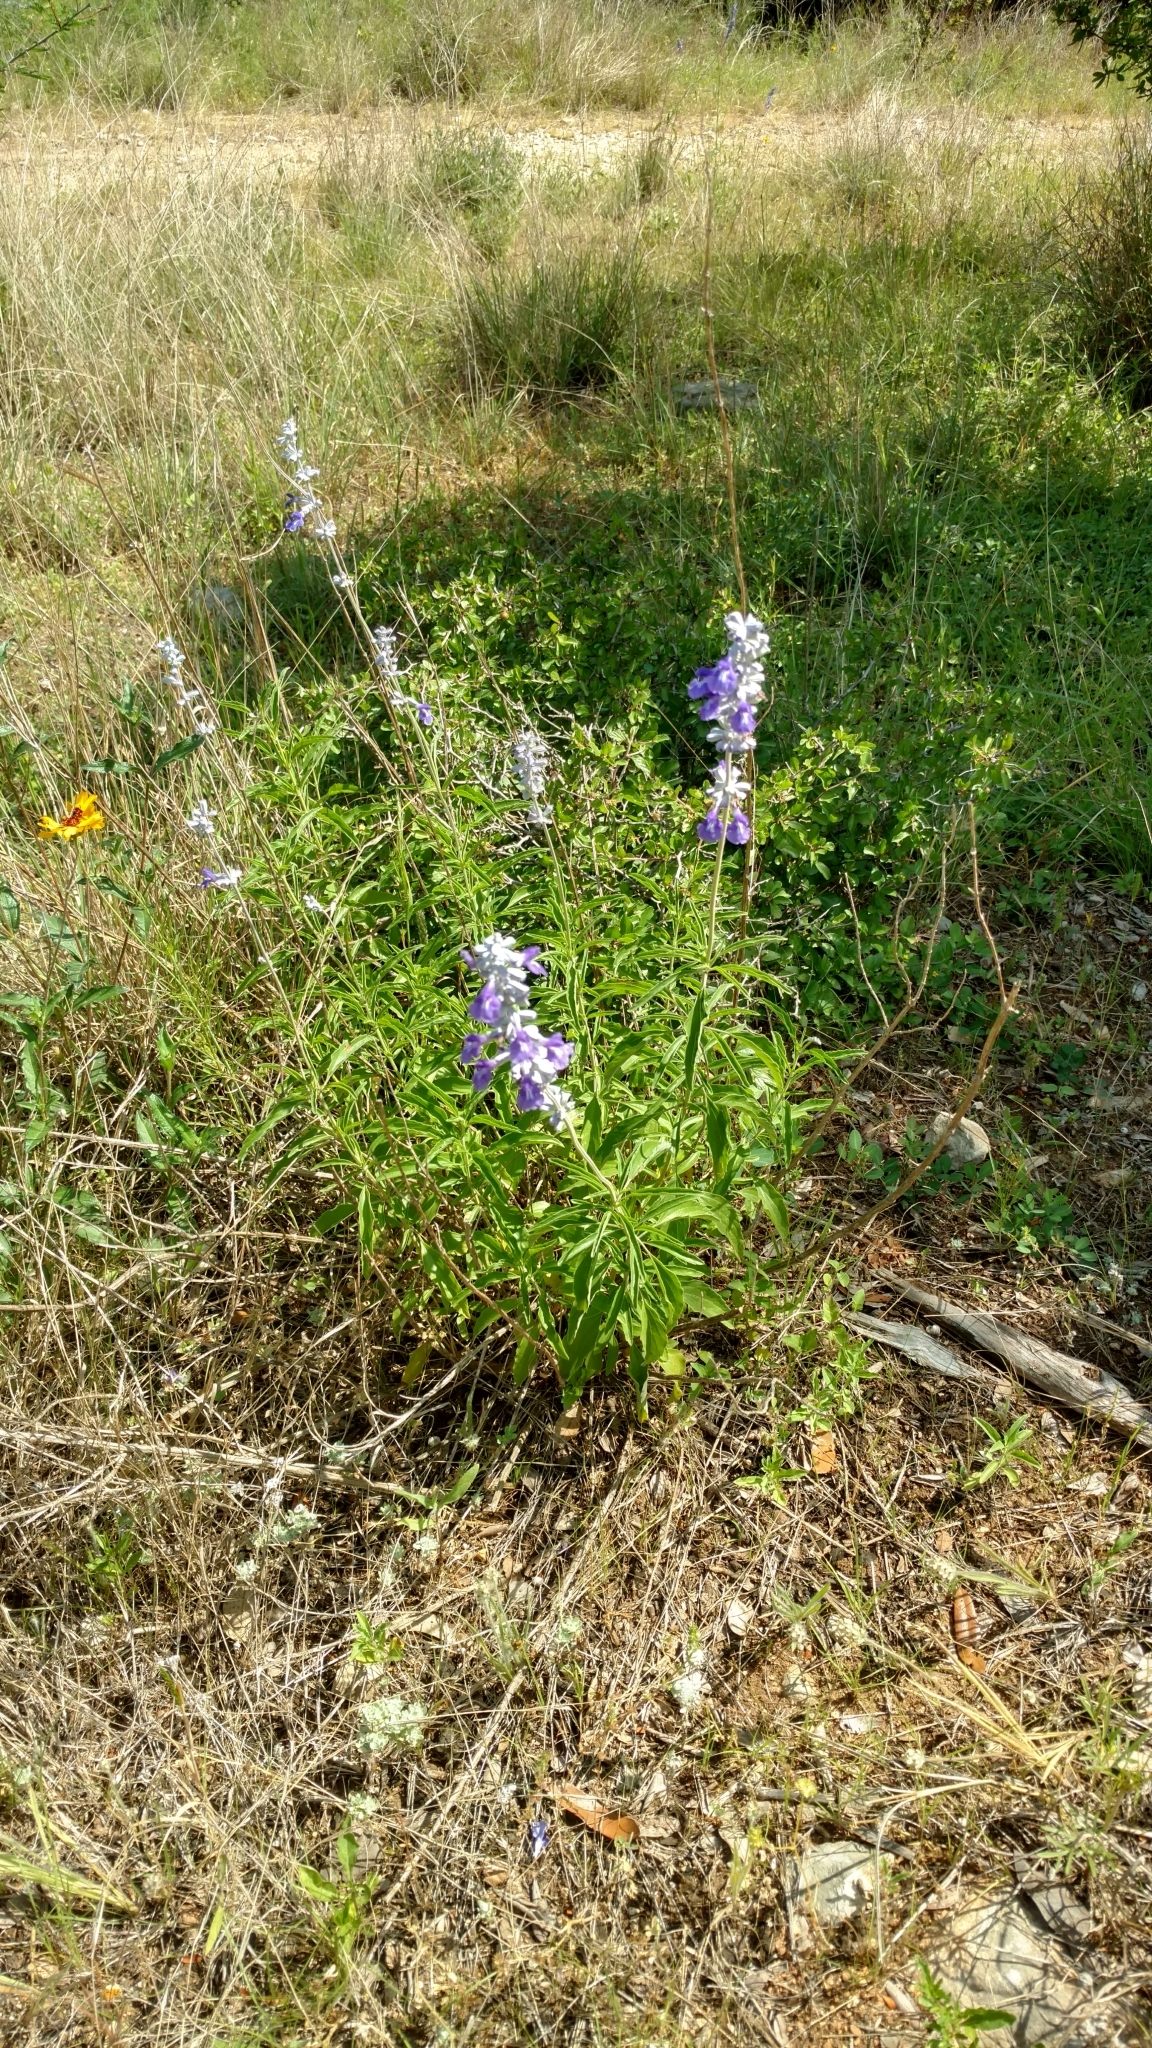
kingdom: Plantae
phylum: Tracheophyta
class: Magnoliopsida
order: Lamiales
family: Lamiaceae
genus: Salvia
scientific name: Salvia farinacea
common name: Mealy sage
